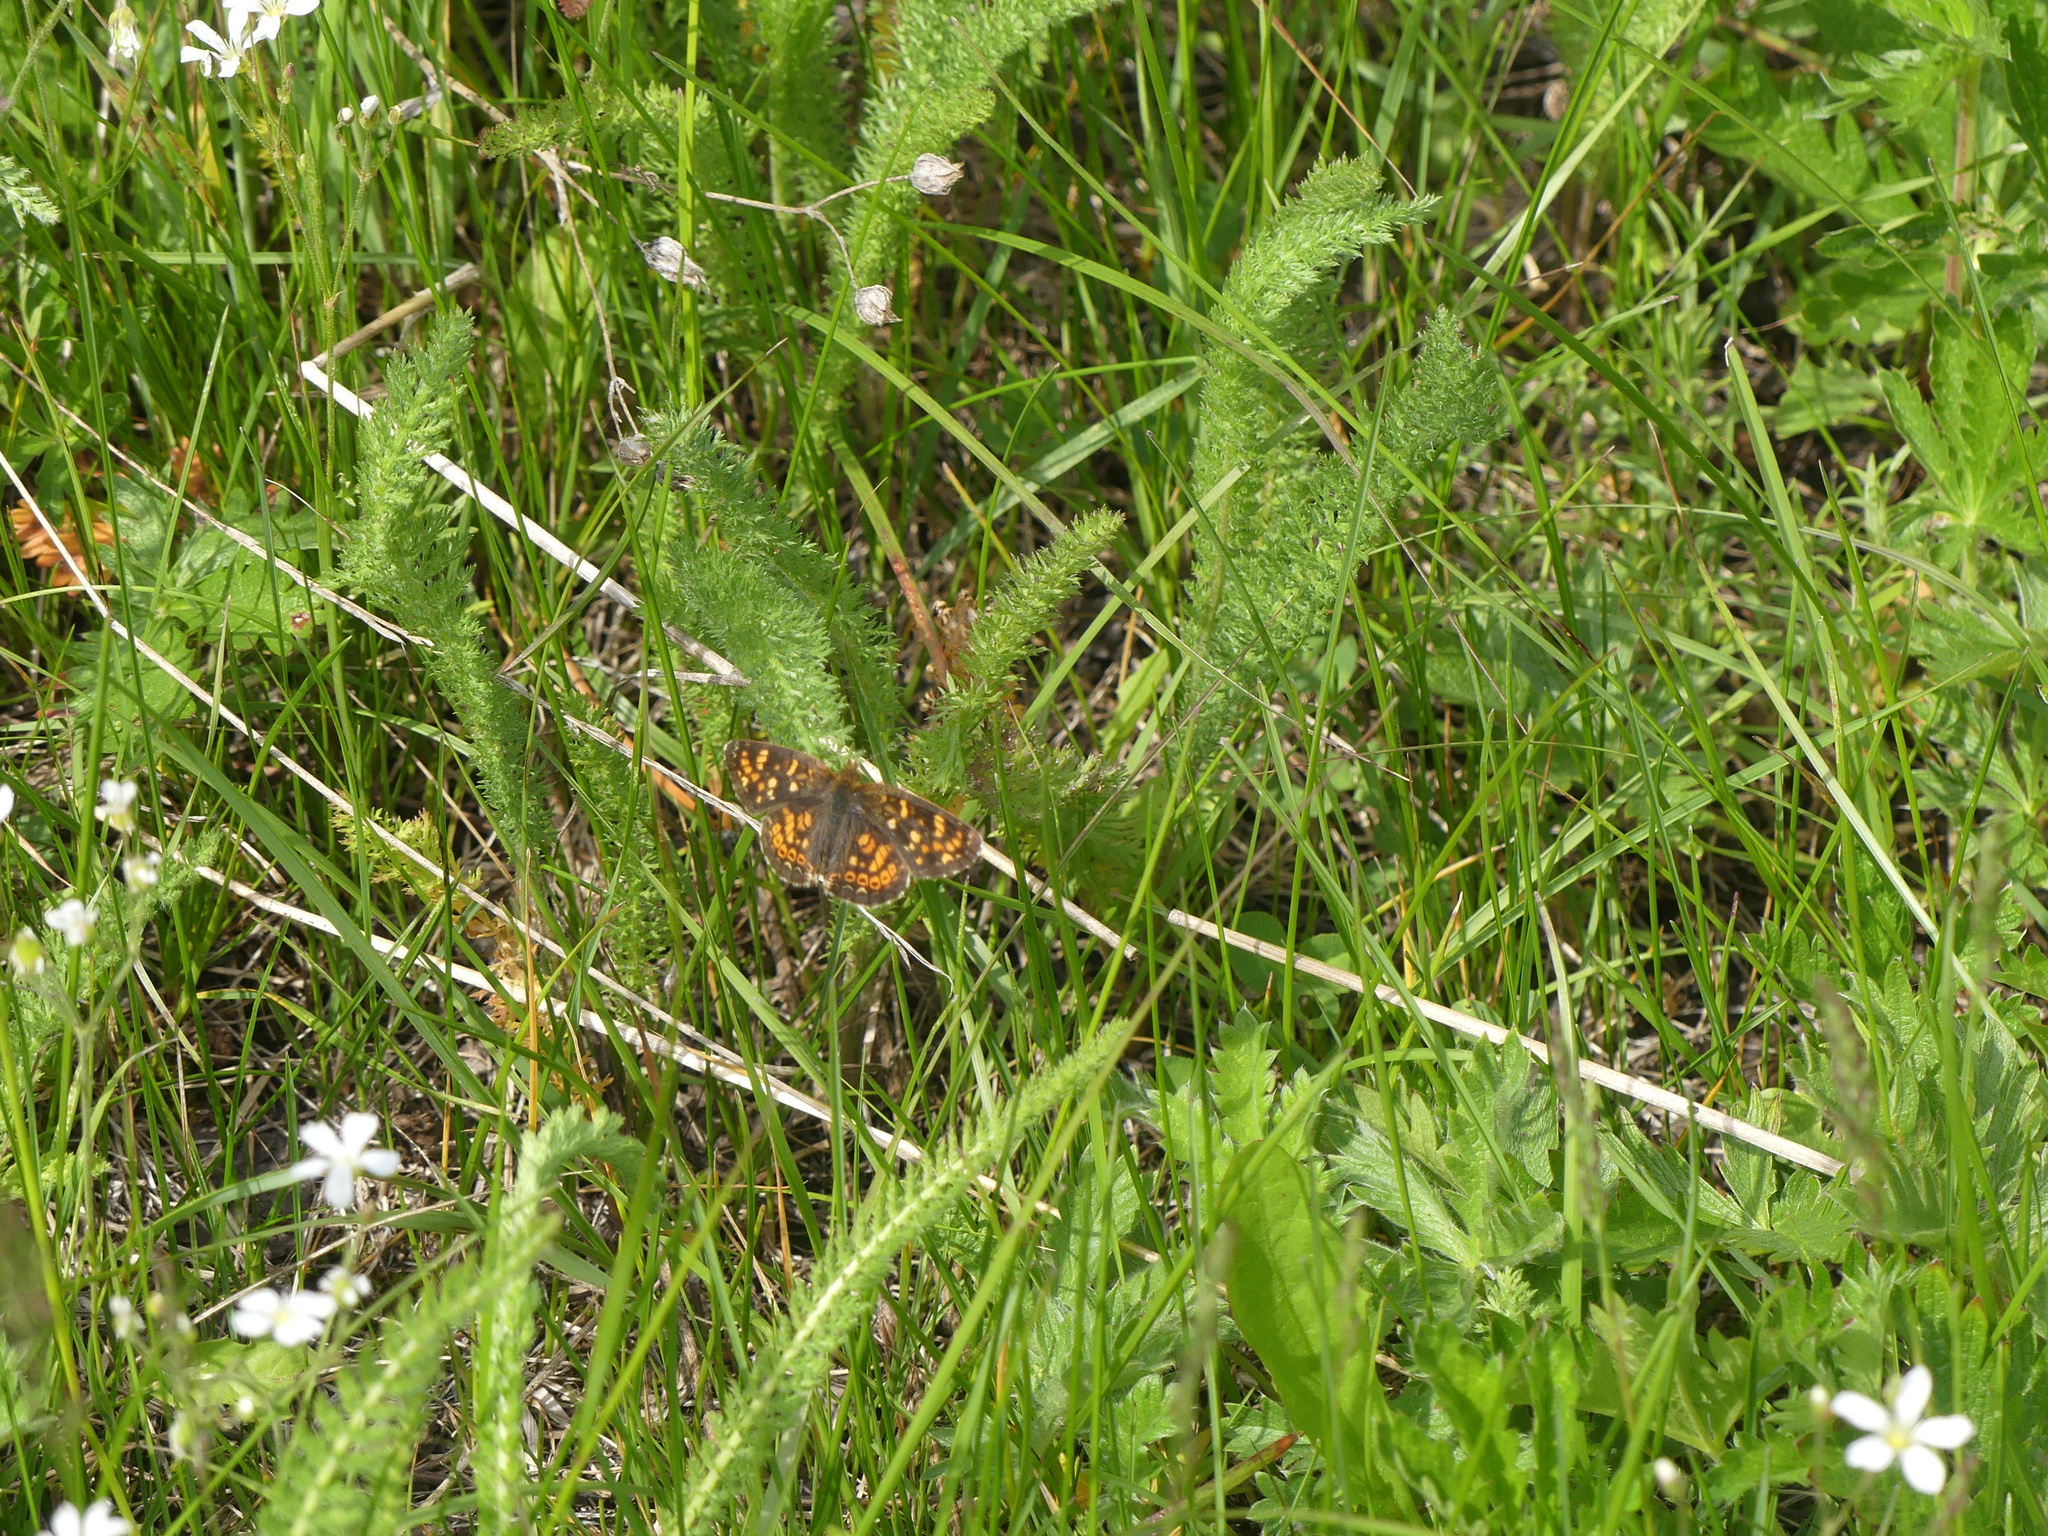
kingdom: Animalia
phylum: Arthropoda
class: Insecta
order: Lepidoptera
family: Nymphalidae
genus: Phyciodes
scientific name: Phyciodes tharos
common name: Pearl crescent
